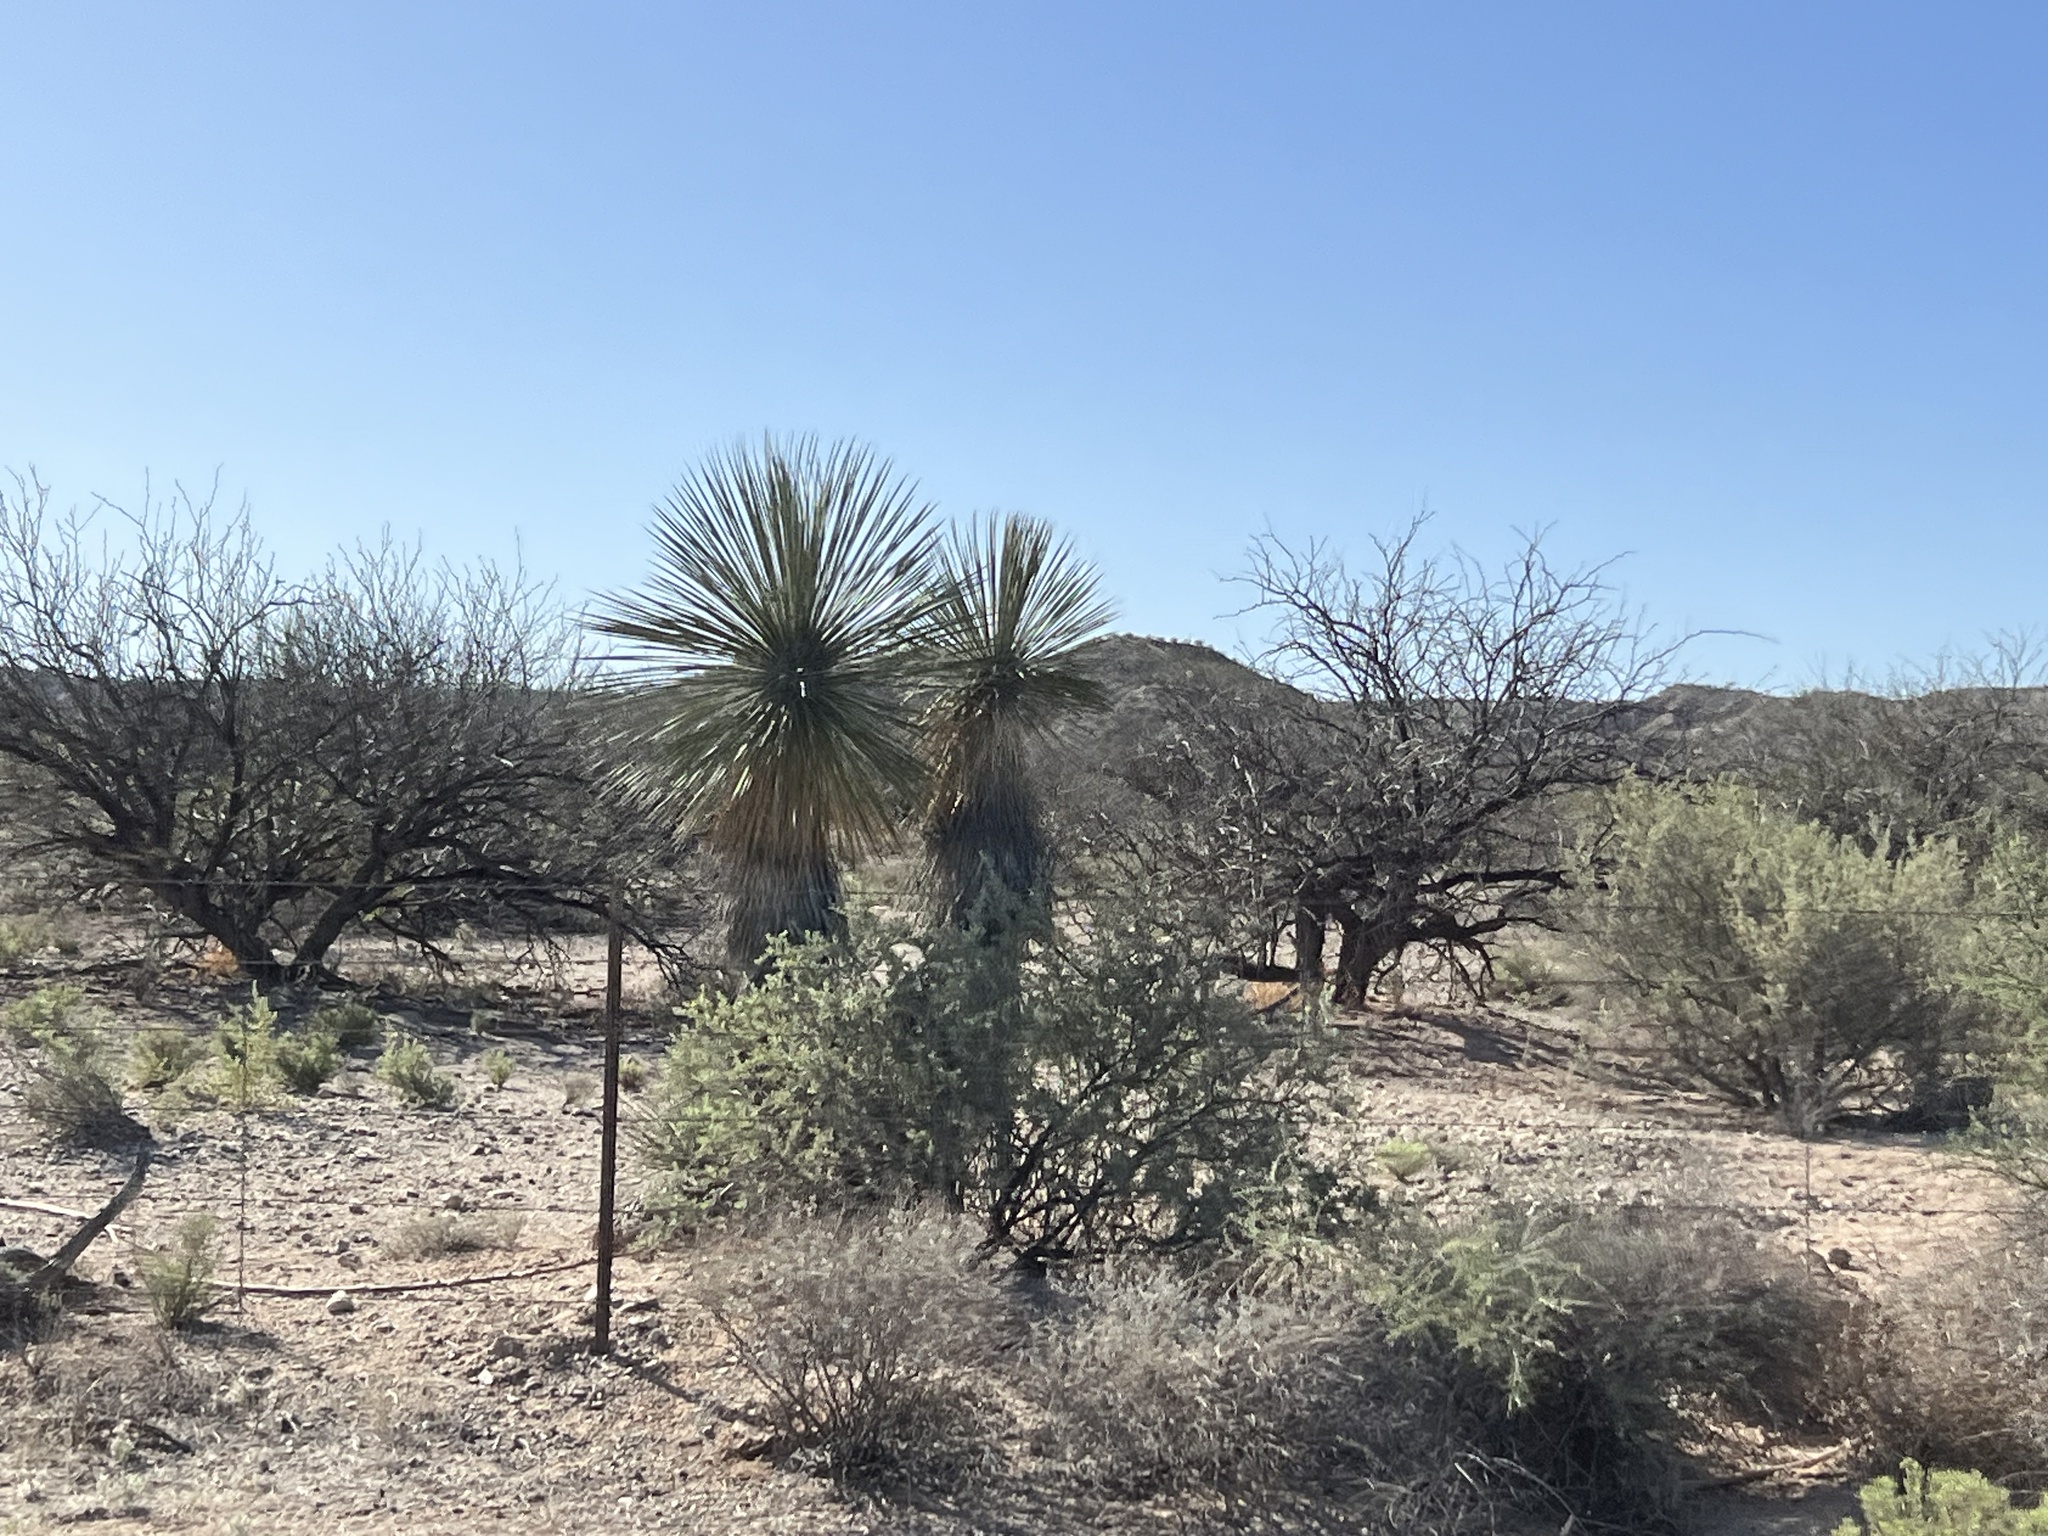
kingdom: Plantae
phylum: Tracheophyta
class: Liliopsida
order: Asparagales
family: Asparagaceae
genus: Yucca
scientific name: Yucca elata
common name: Palmella
